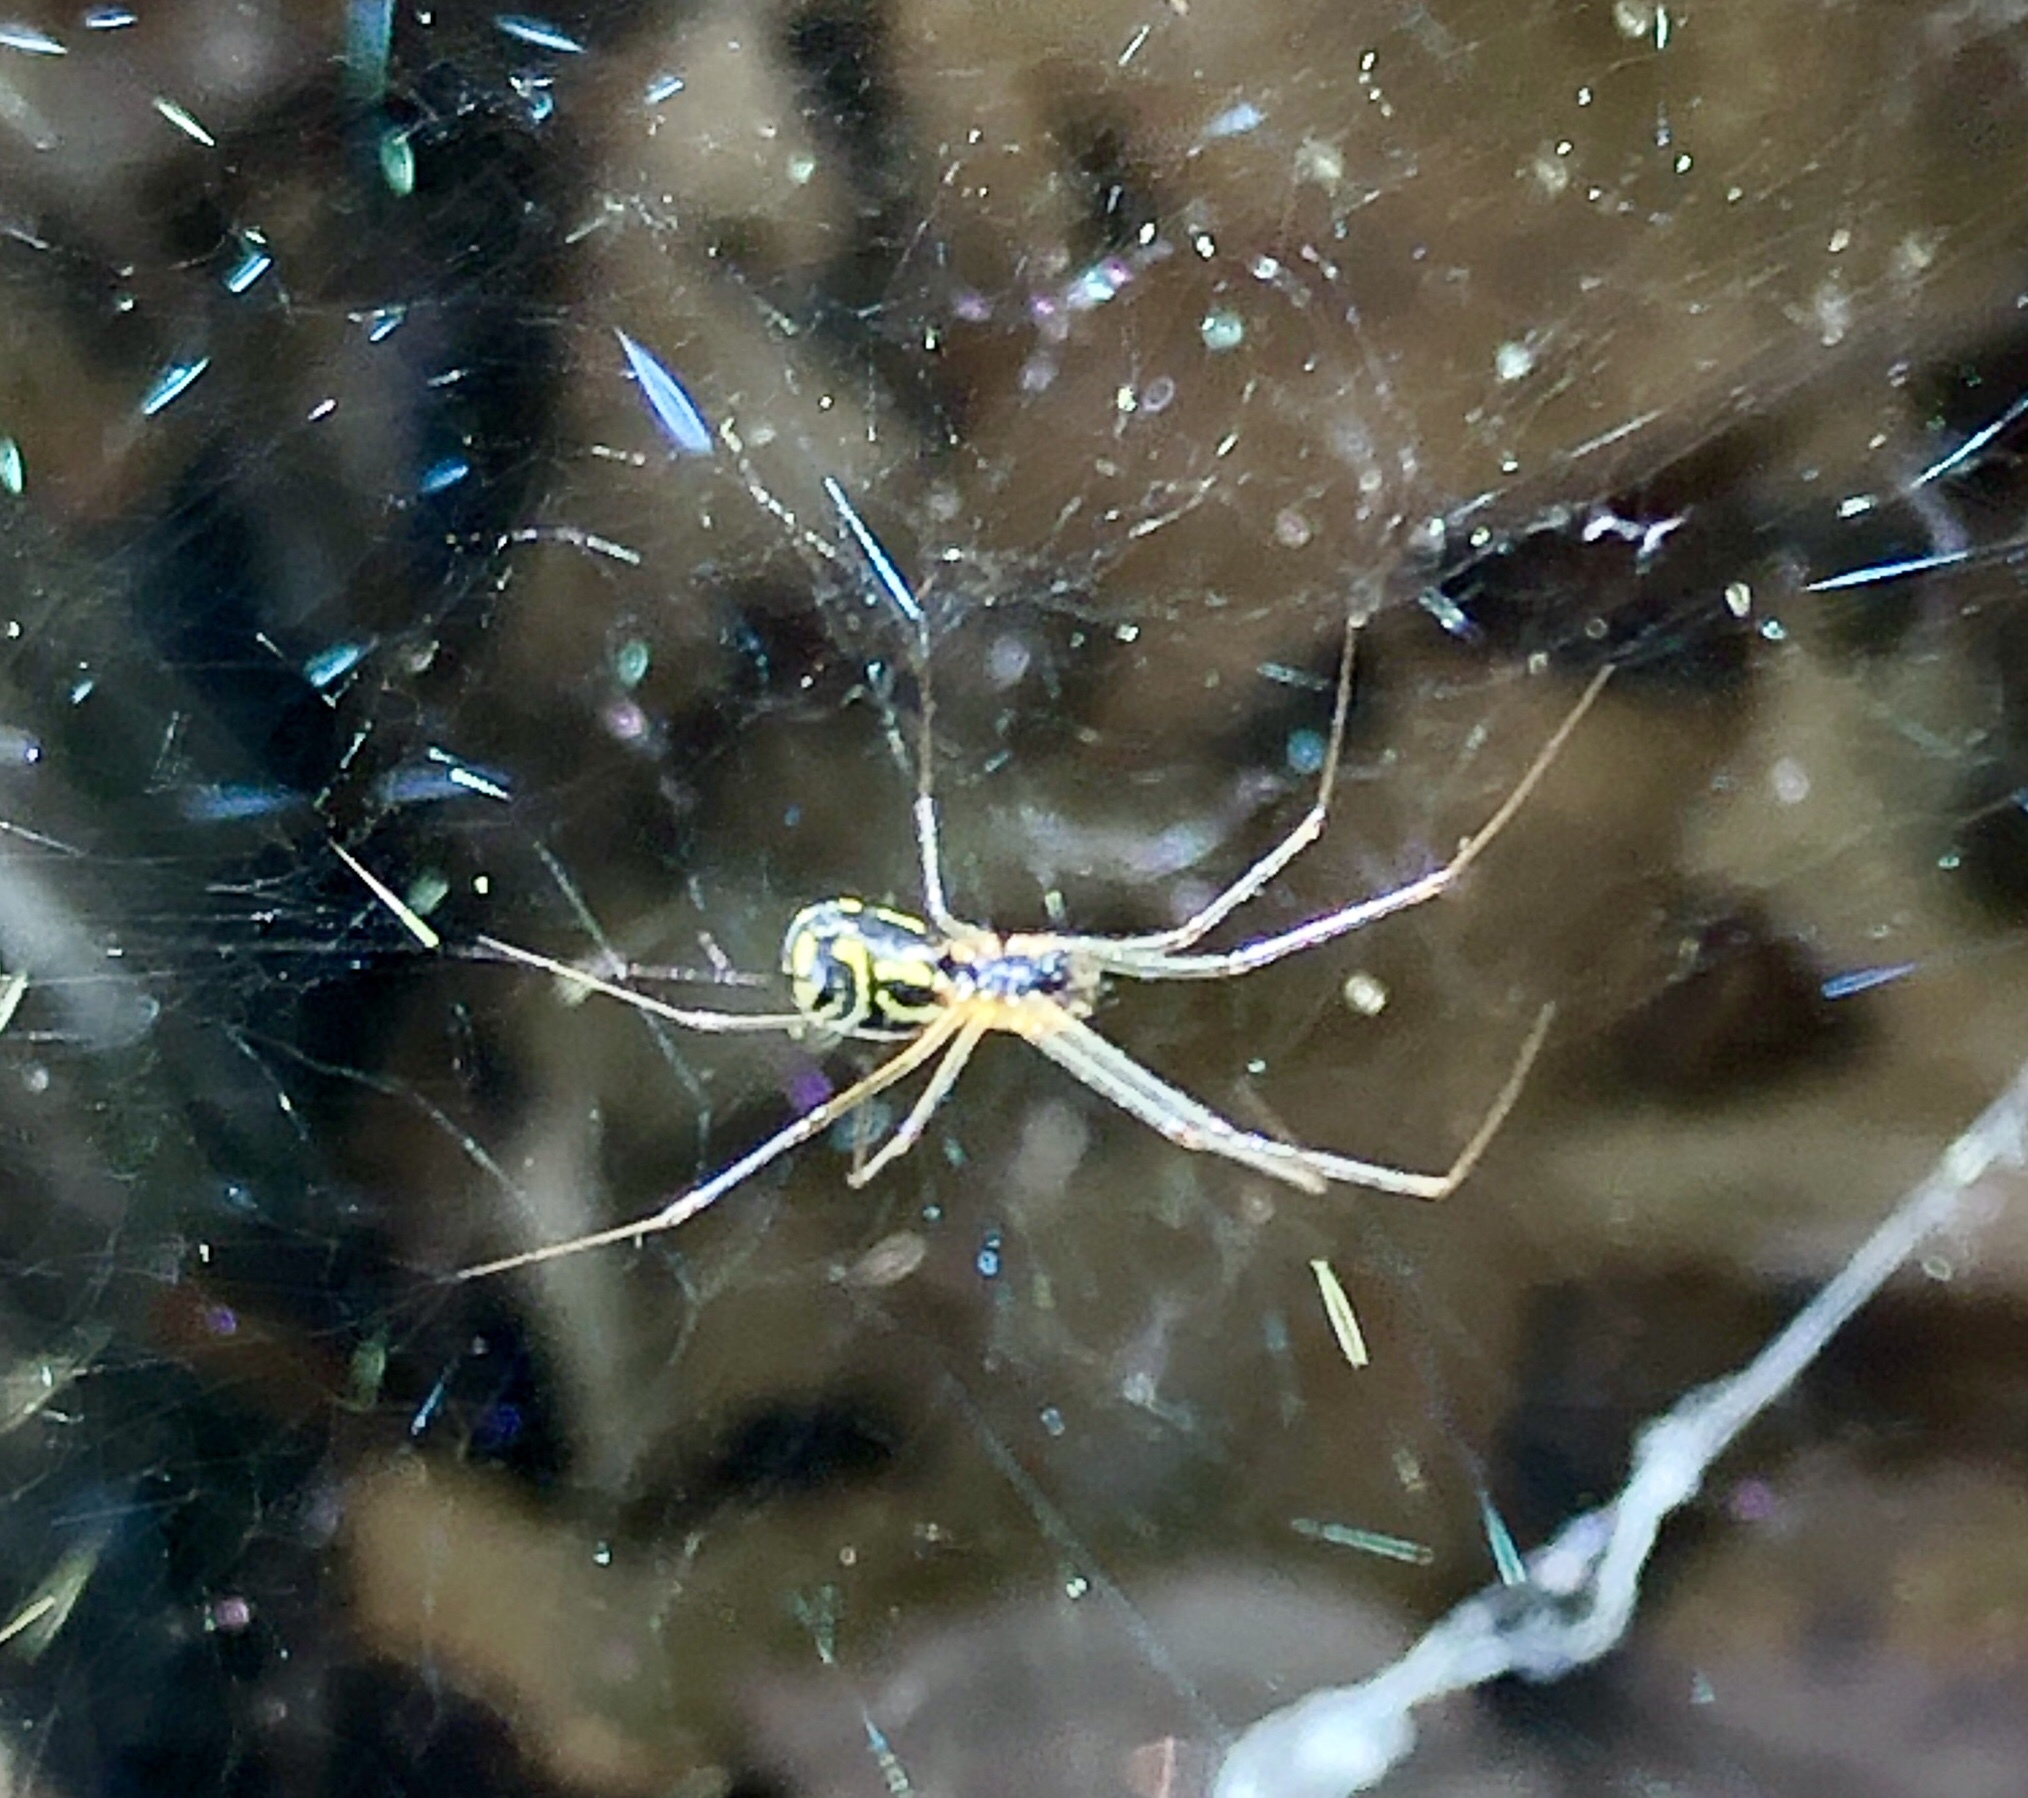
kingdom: Animalia
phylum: Arthropoda
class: Arachnida
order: Araneae
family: Linyphiidae
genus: Neriene
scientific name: Neriene radiata
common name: Filmy dome spider
